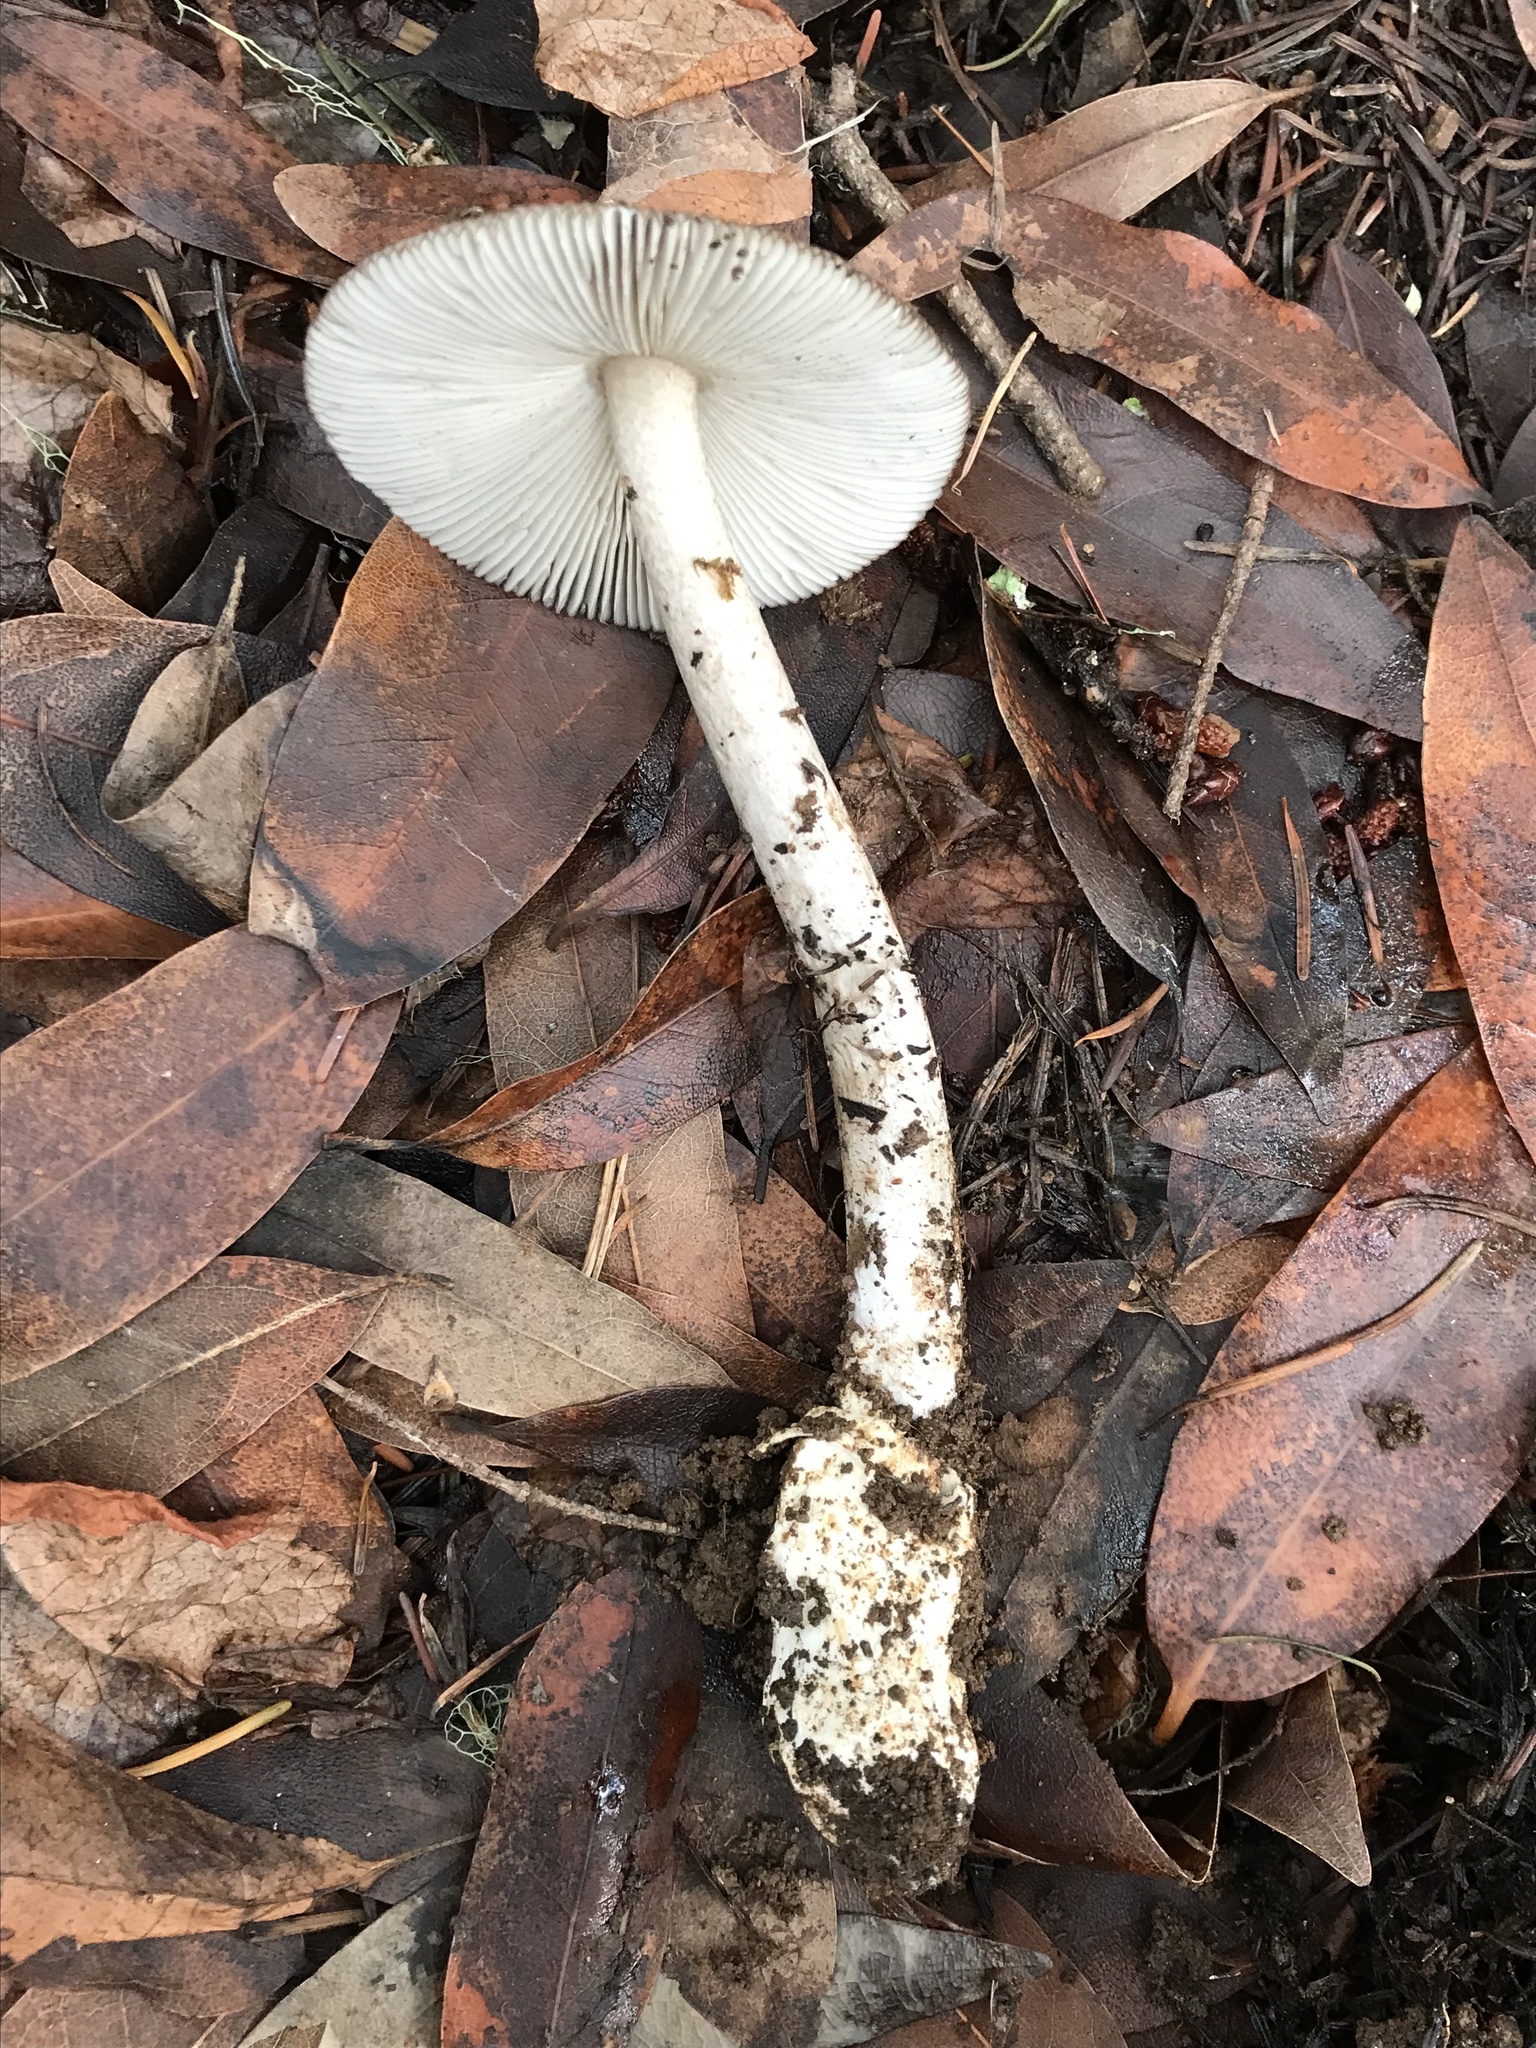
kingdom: Fungi
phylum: Basidiomycota
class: Agaricomycetes
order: Agaricales
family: Amanitaceae
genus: Amanita
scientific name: Amanita constricta
